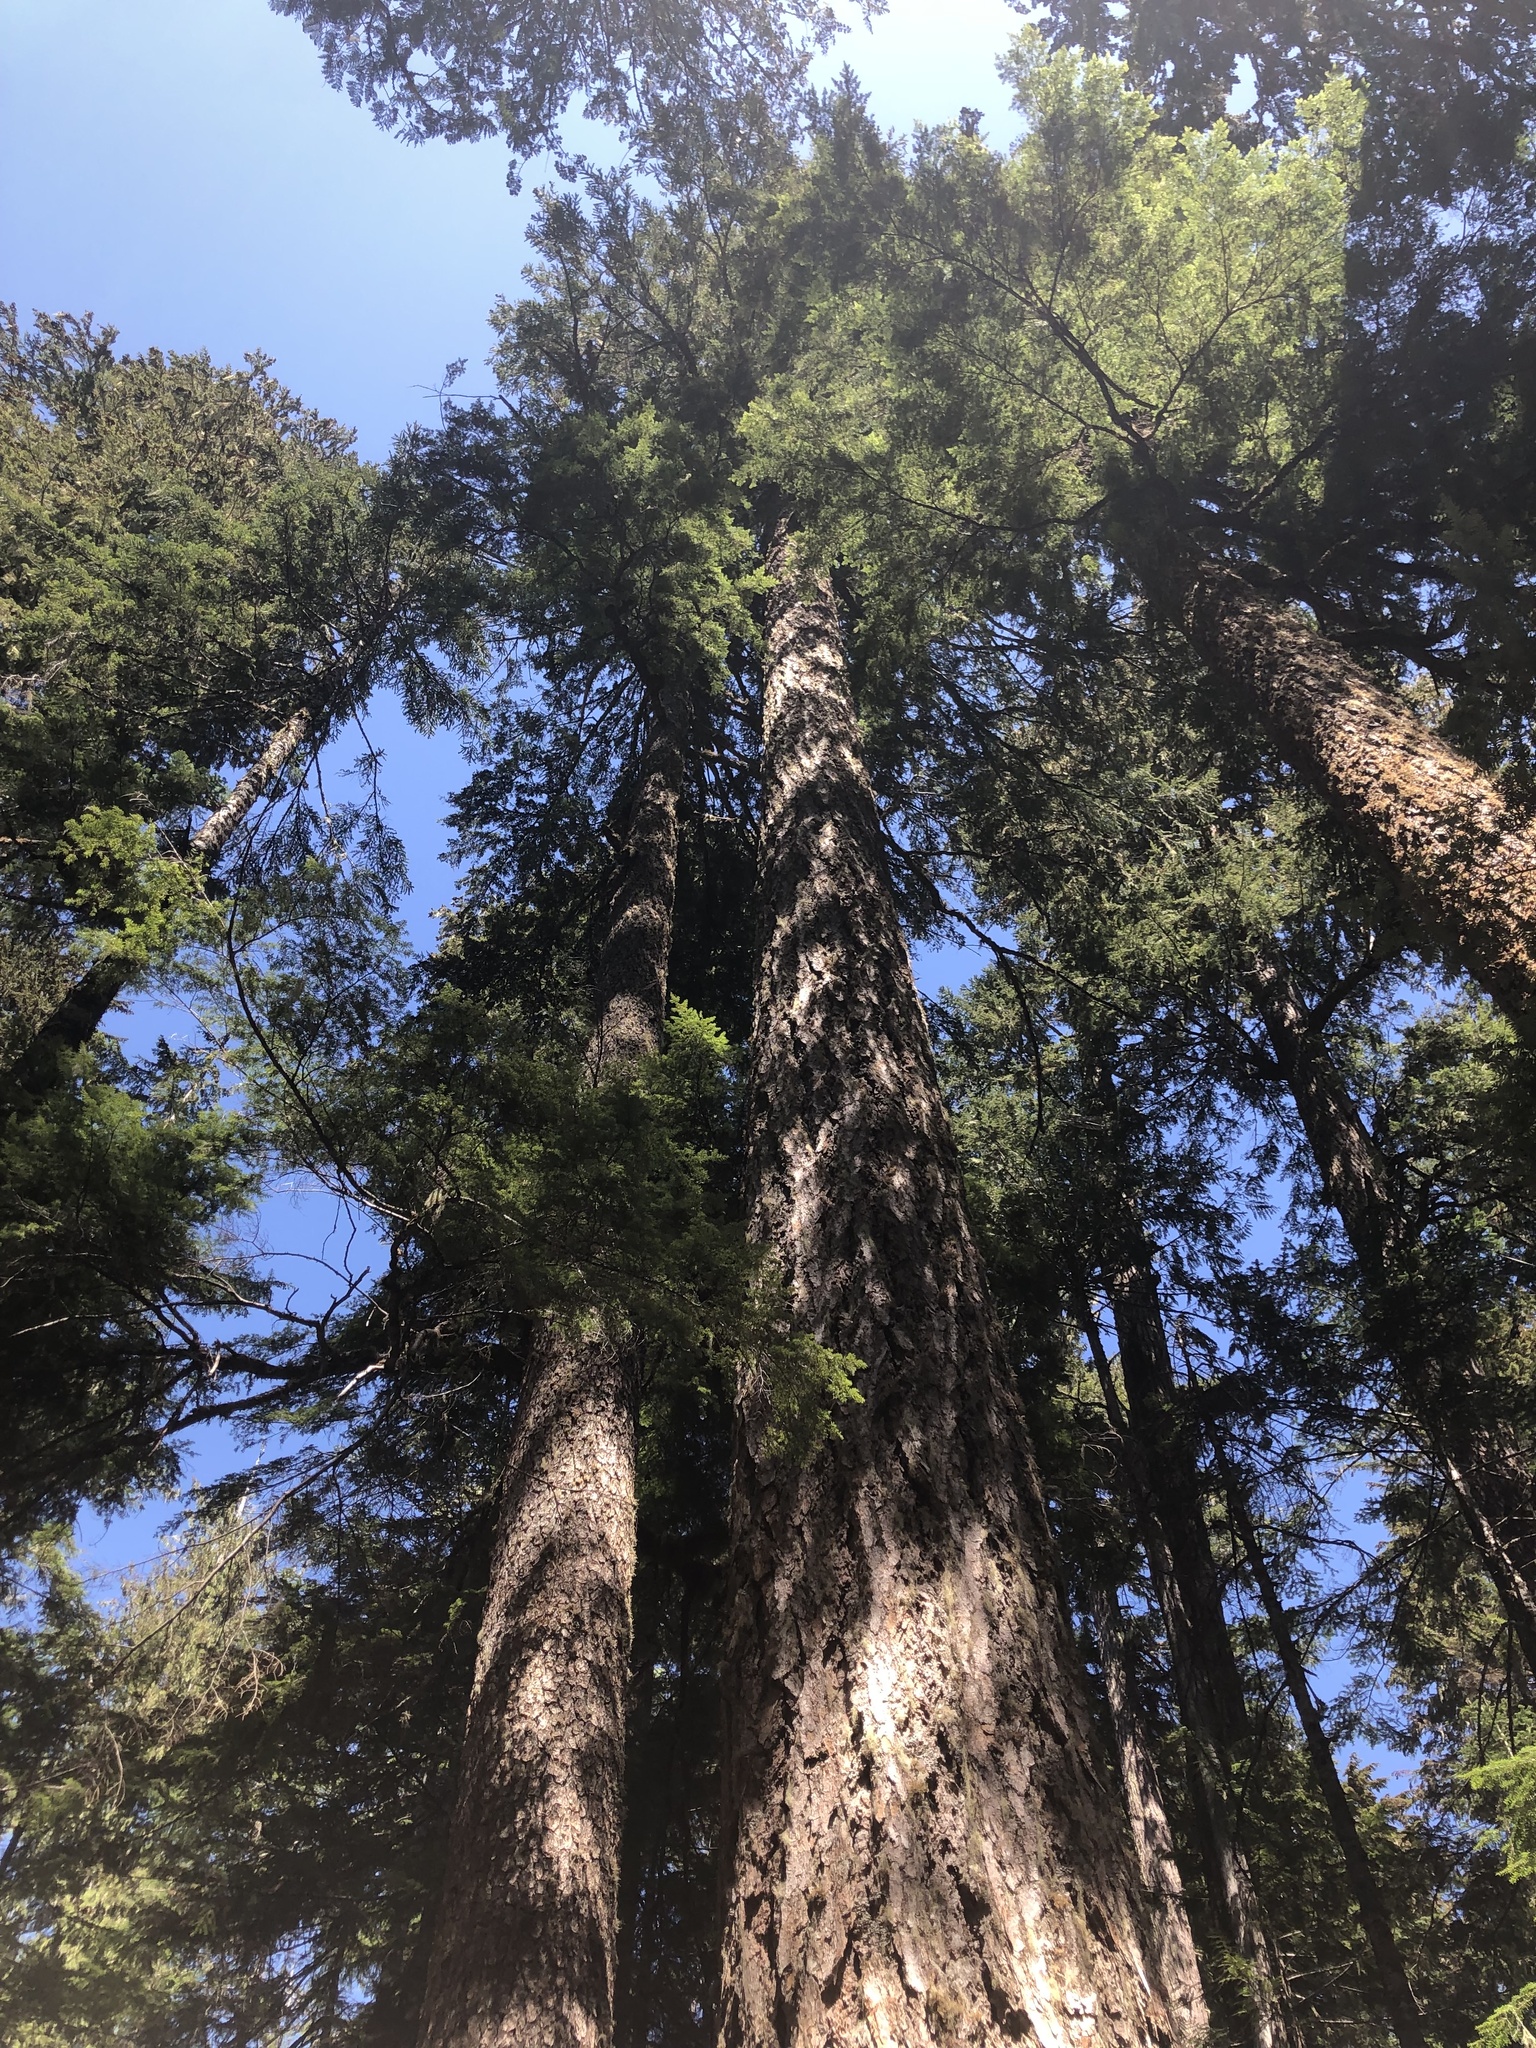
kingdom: Plantae
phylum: Tracheophyta
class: Pinopsida
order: Pinales
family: Pinaceae
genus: Pseudotsuga
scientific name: Pseudotsuga menziesii
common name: Douglas fir
